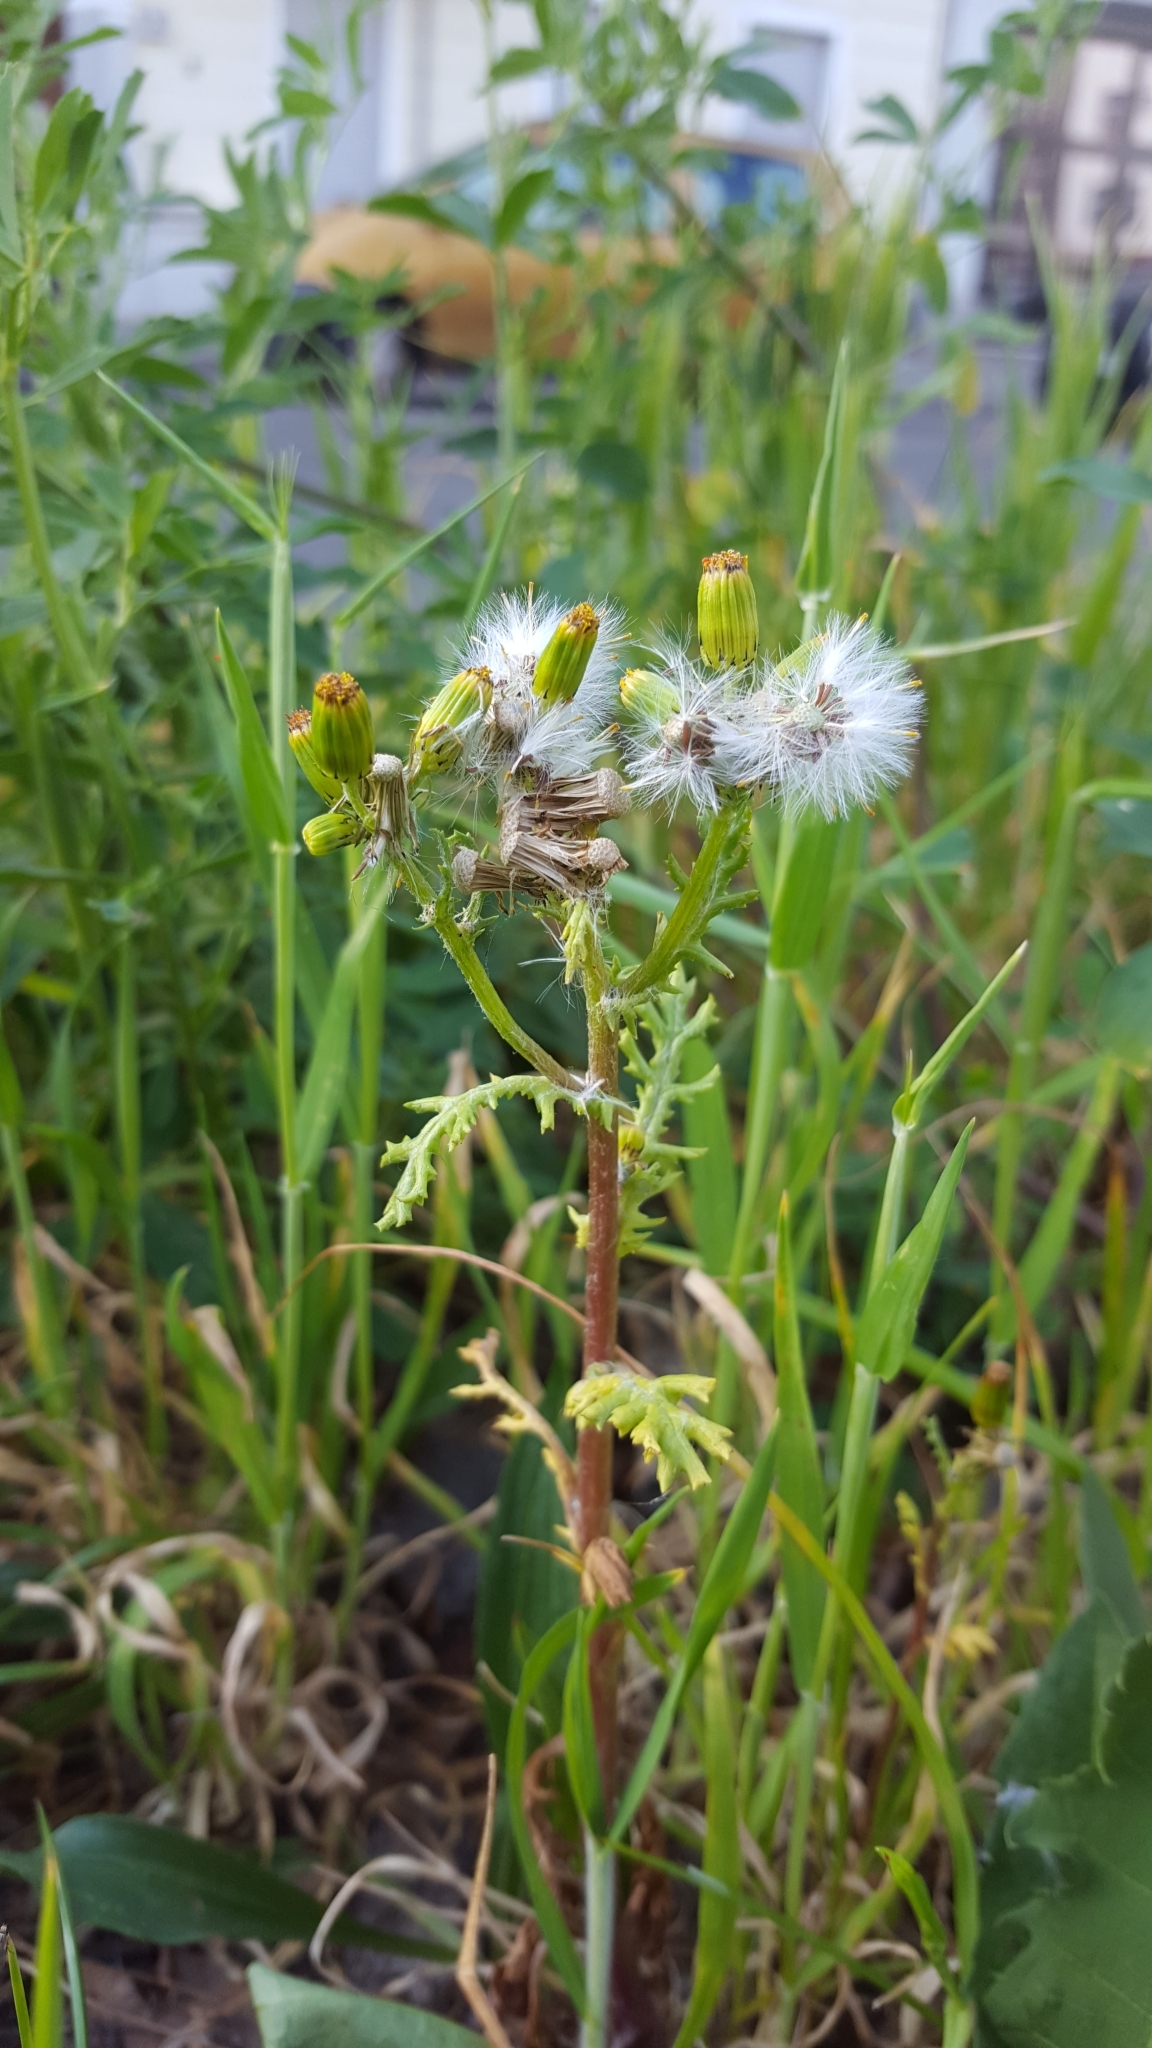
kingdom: Plantae
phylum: Tracheophyta
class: Magnoliopsida
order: Asterales
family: Asteraceae
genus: Senecio
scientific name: Senecio vulgaris
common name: Old-man-in-the-spring
